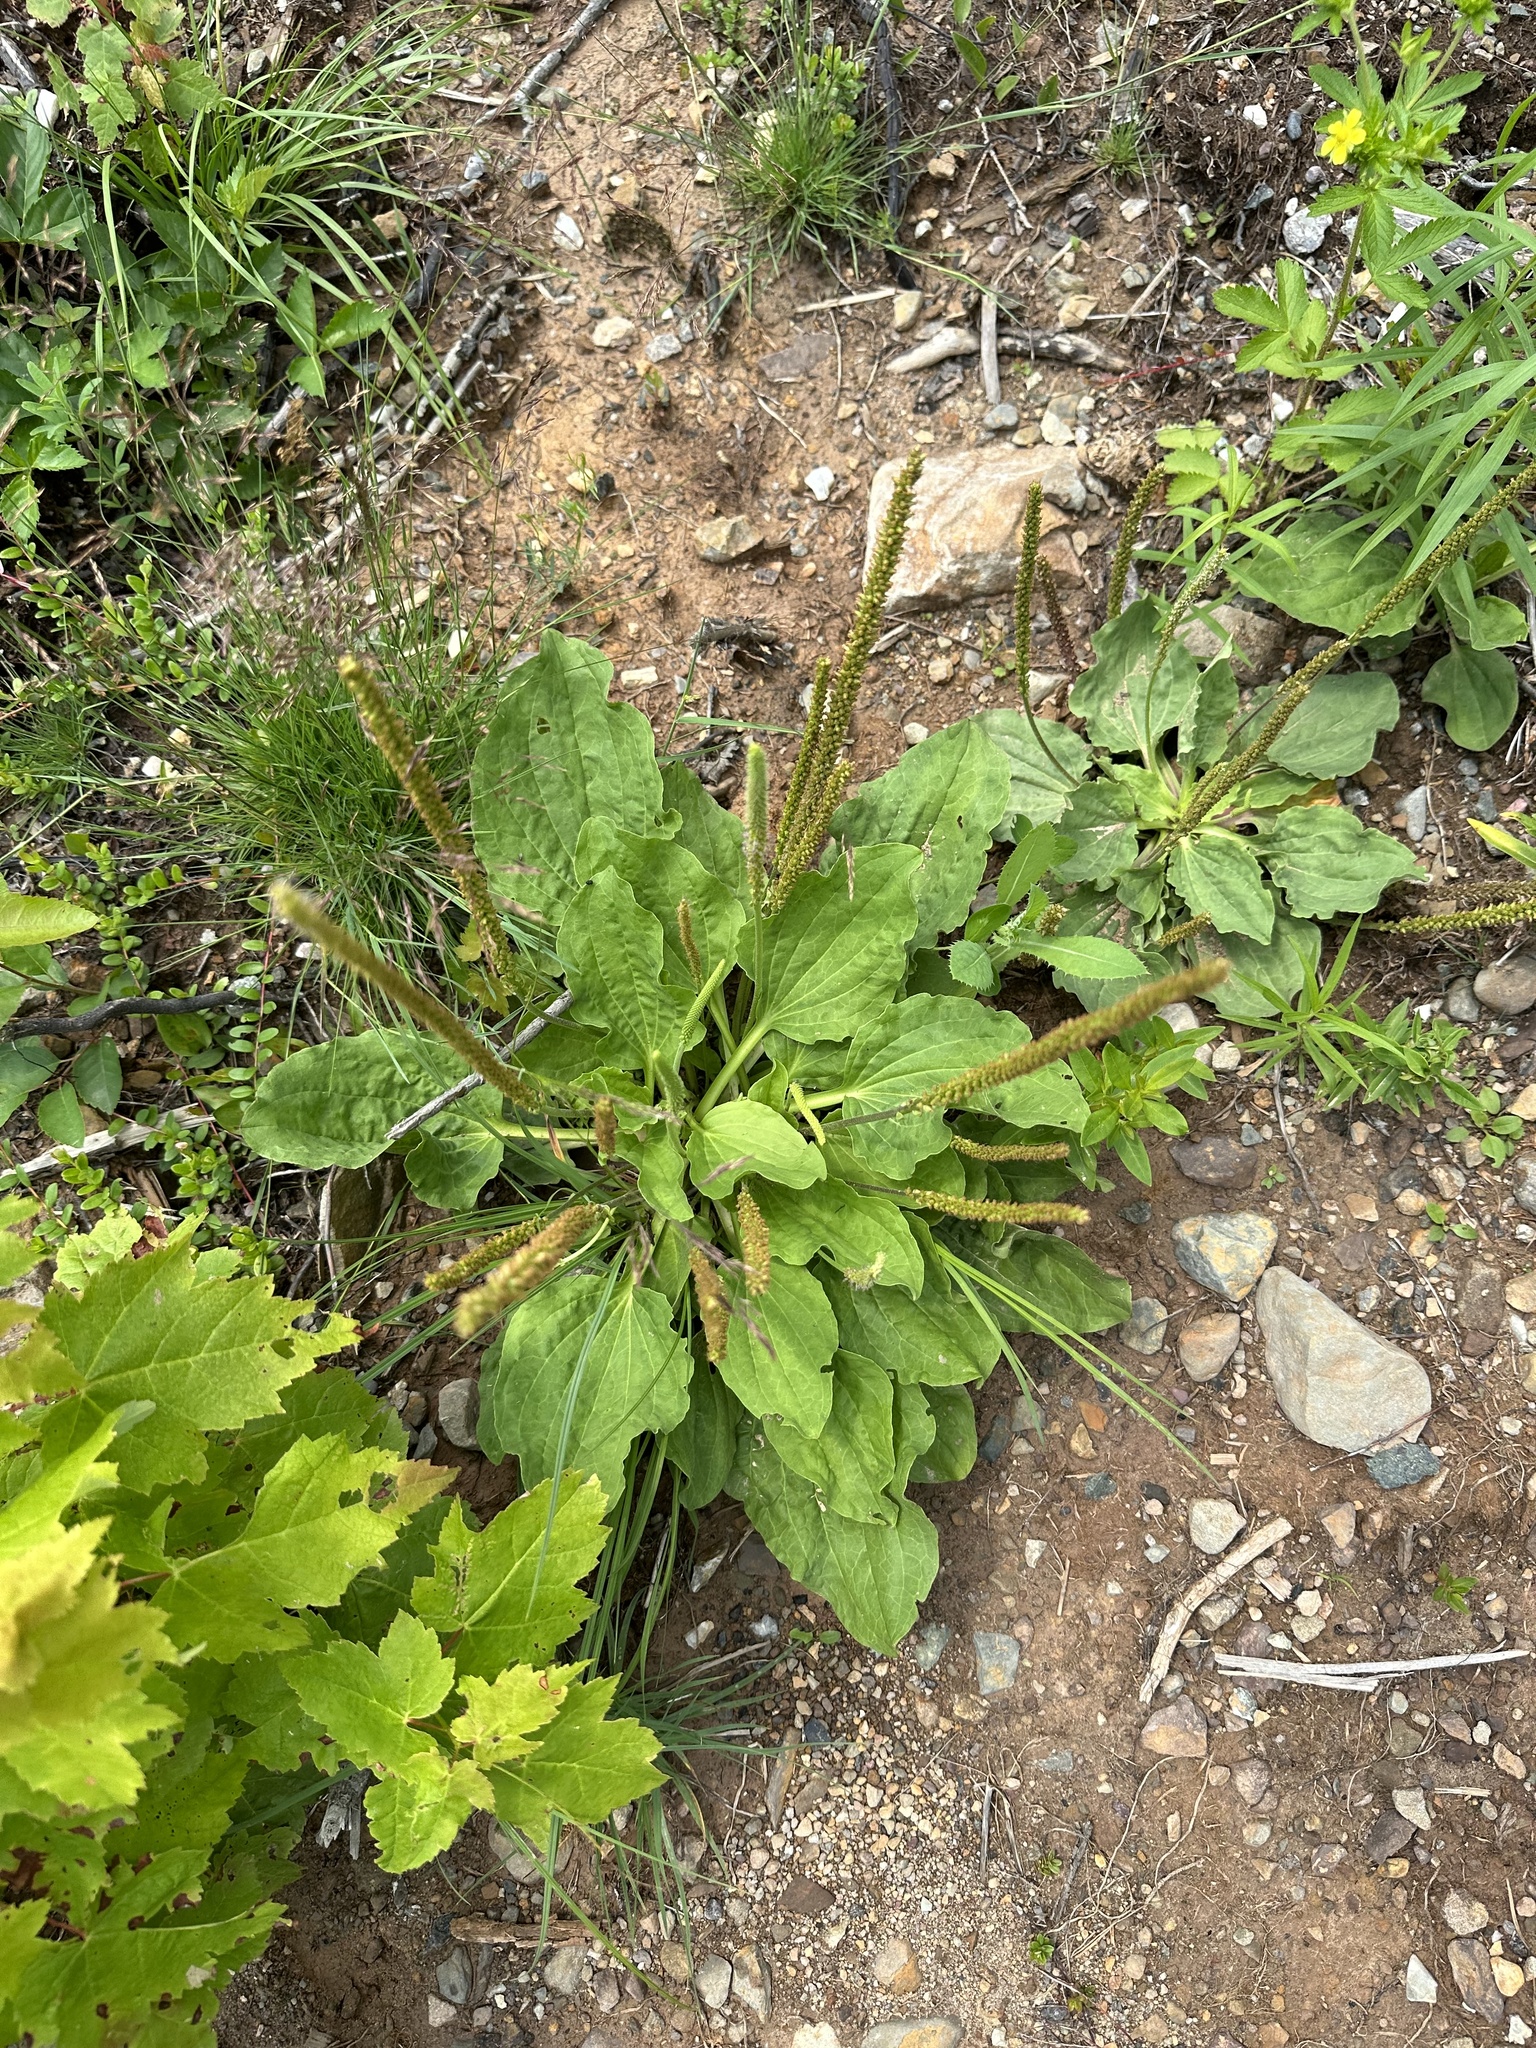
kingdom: Plantae
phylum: Tracheophyta
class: Magnoliopsida
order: Lamiales
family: Plantaginaceae
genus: Plantago
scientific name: Plantago major
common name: Common plantain
